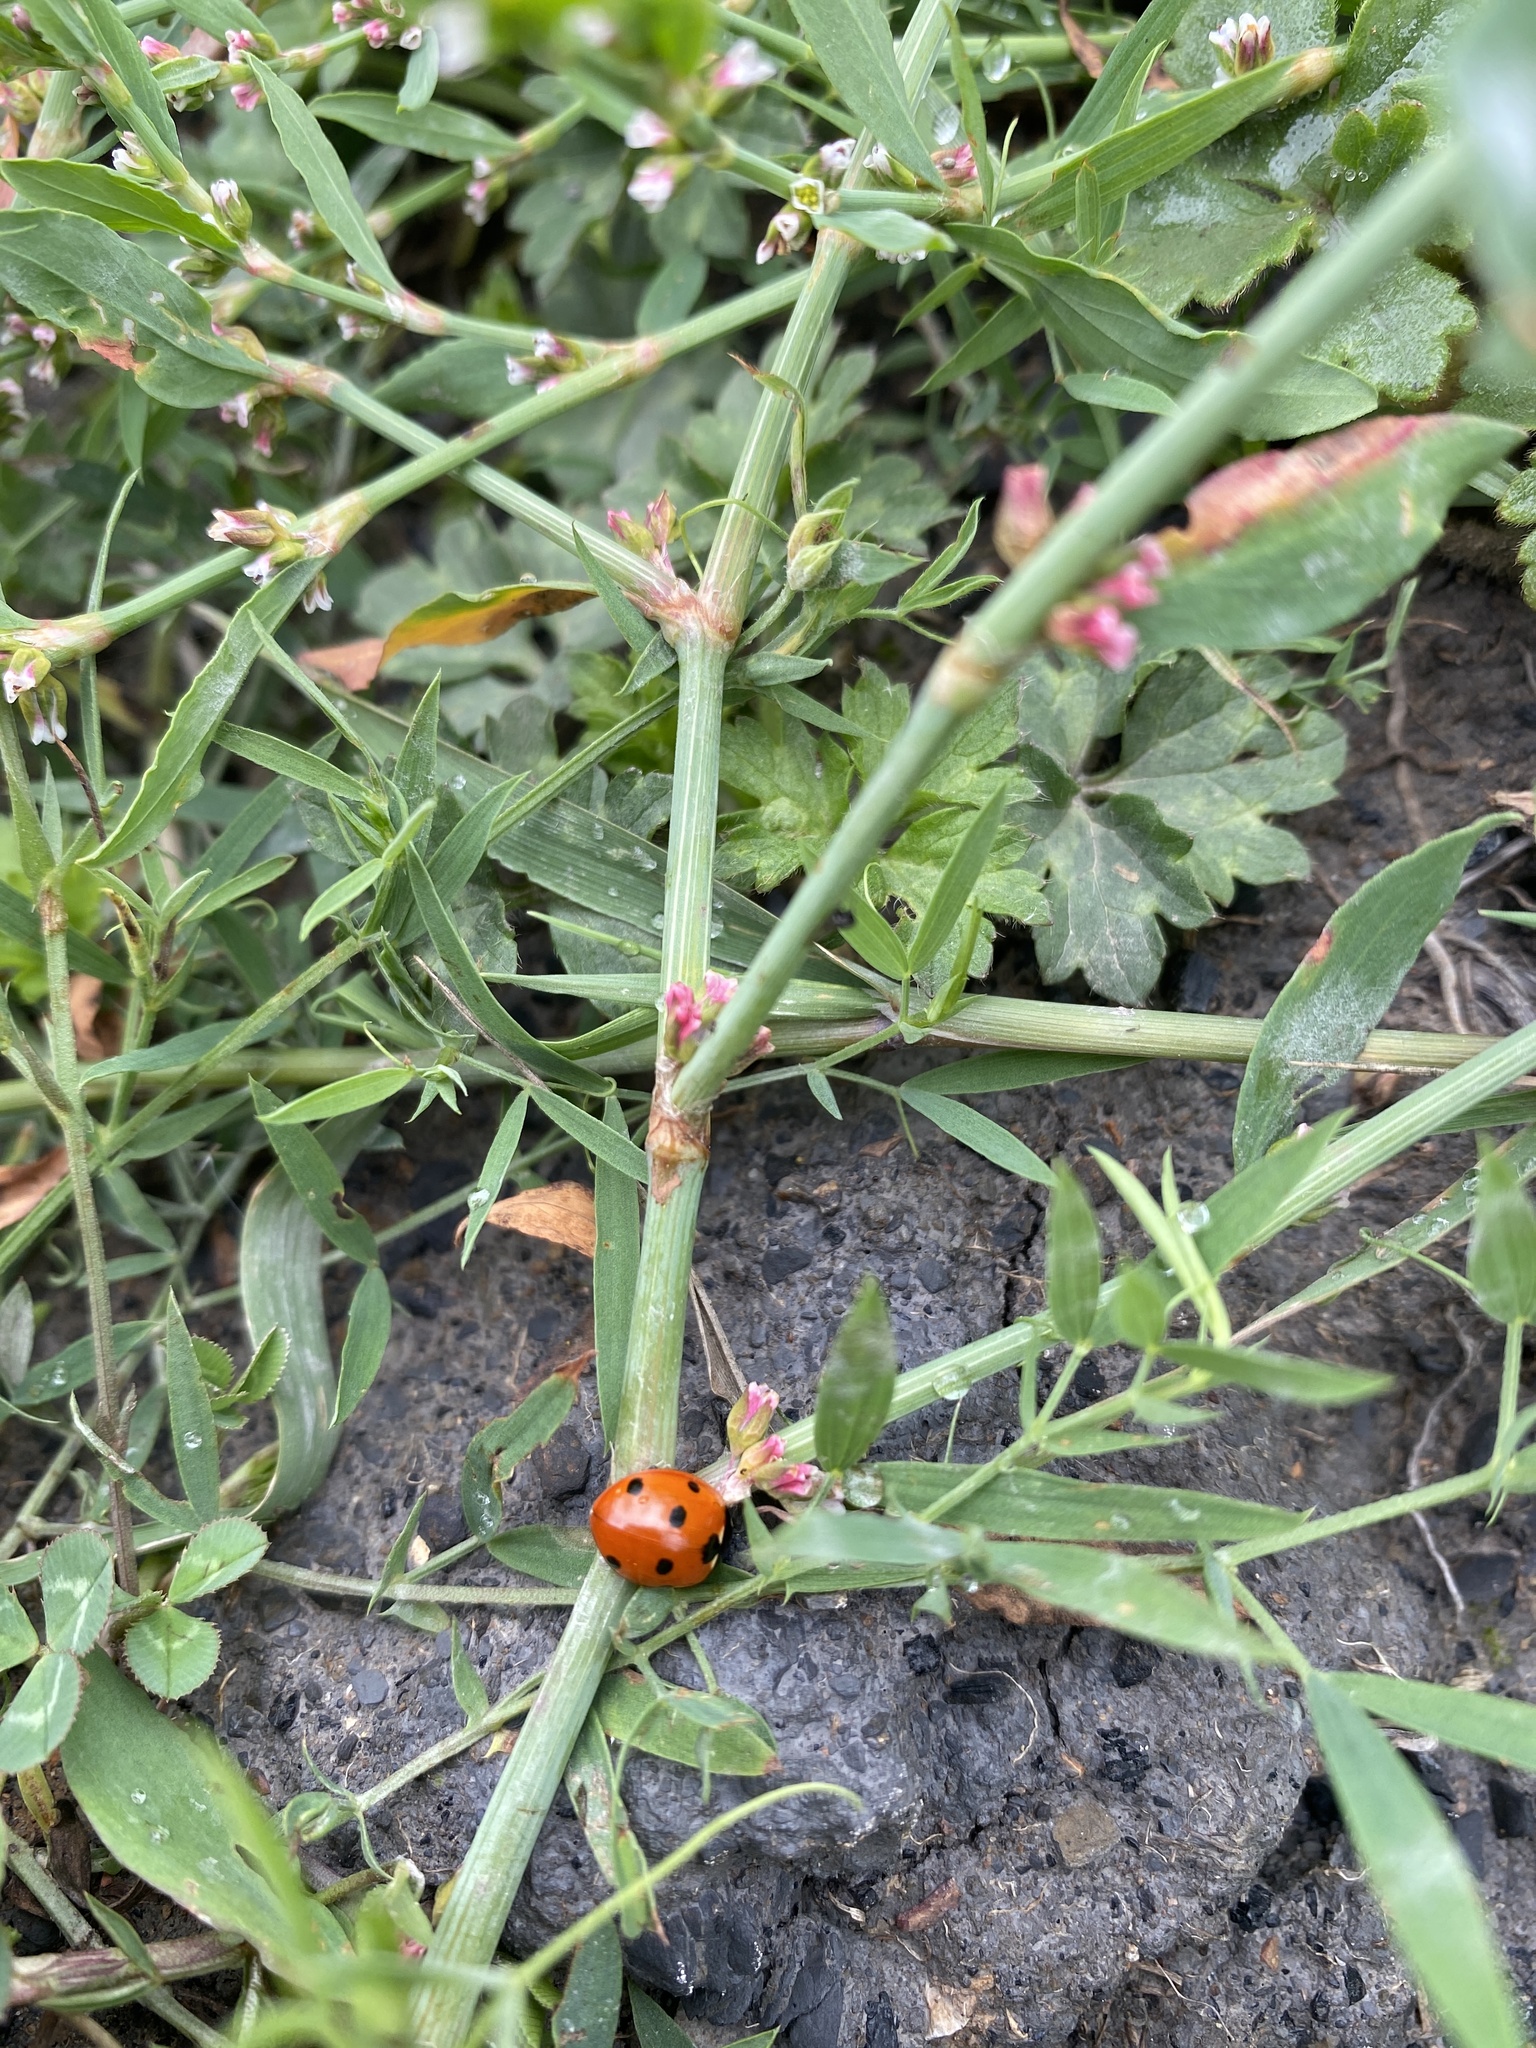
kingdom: Animalia
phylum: Arthropoda
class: Insecta
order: Coleoptera
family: Coccinellidae
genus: Coccinella
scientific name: Coccinella septempunctata
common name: Sevenspotted lady beetle
